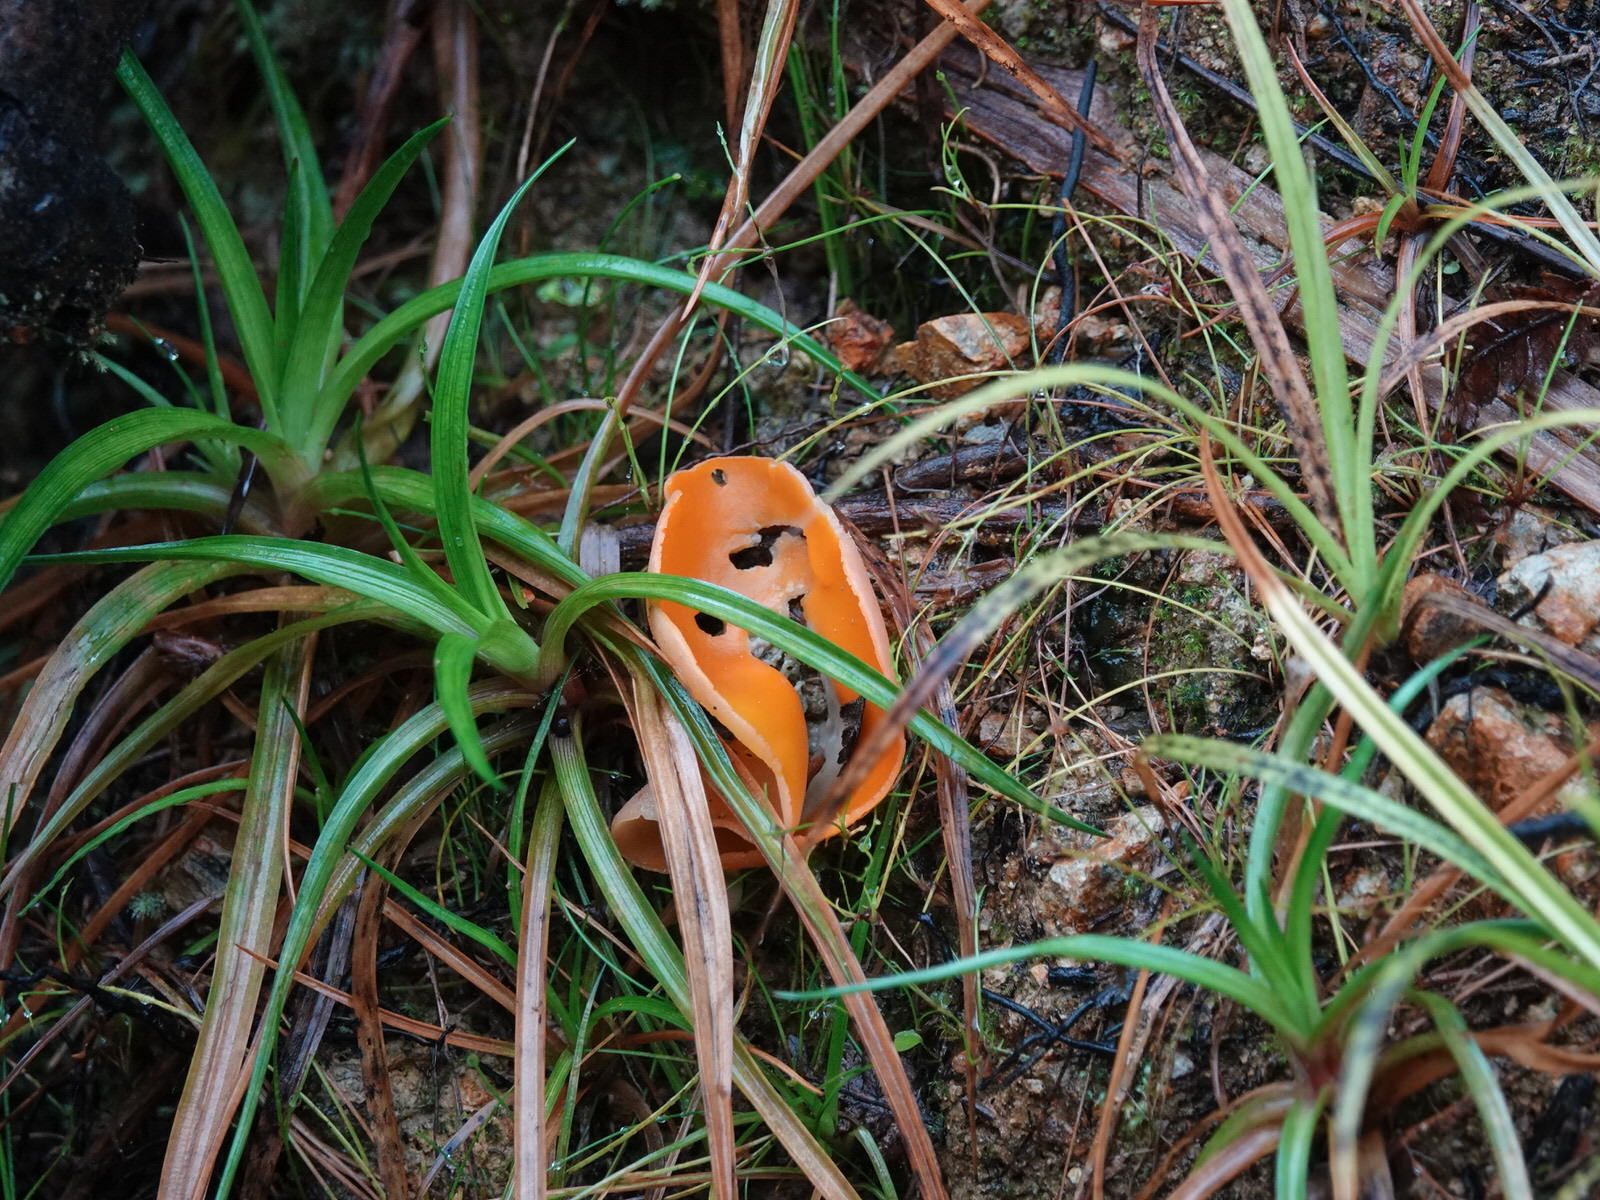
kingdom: Fungi
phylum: Ascomycota
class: Pezizomycetes
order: Pezizales
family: Pyronemataceae
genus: Aleuria
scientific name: Aleuria aurantia
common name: Orange peel fungus
